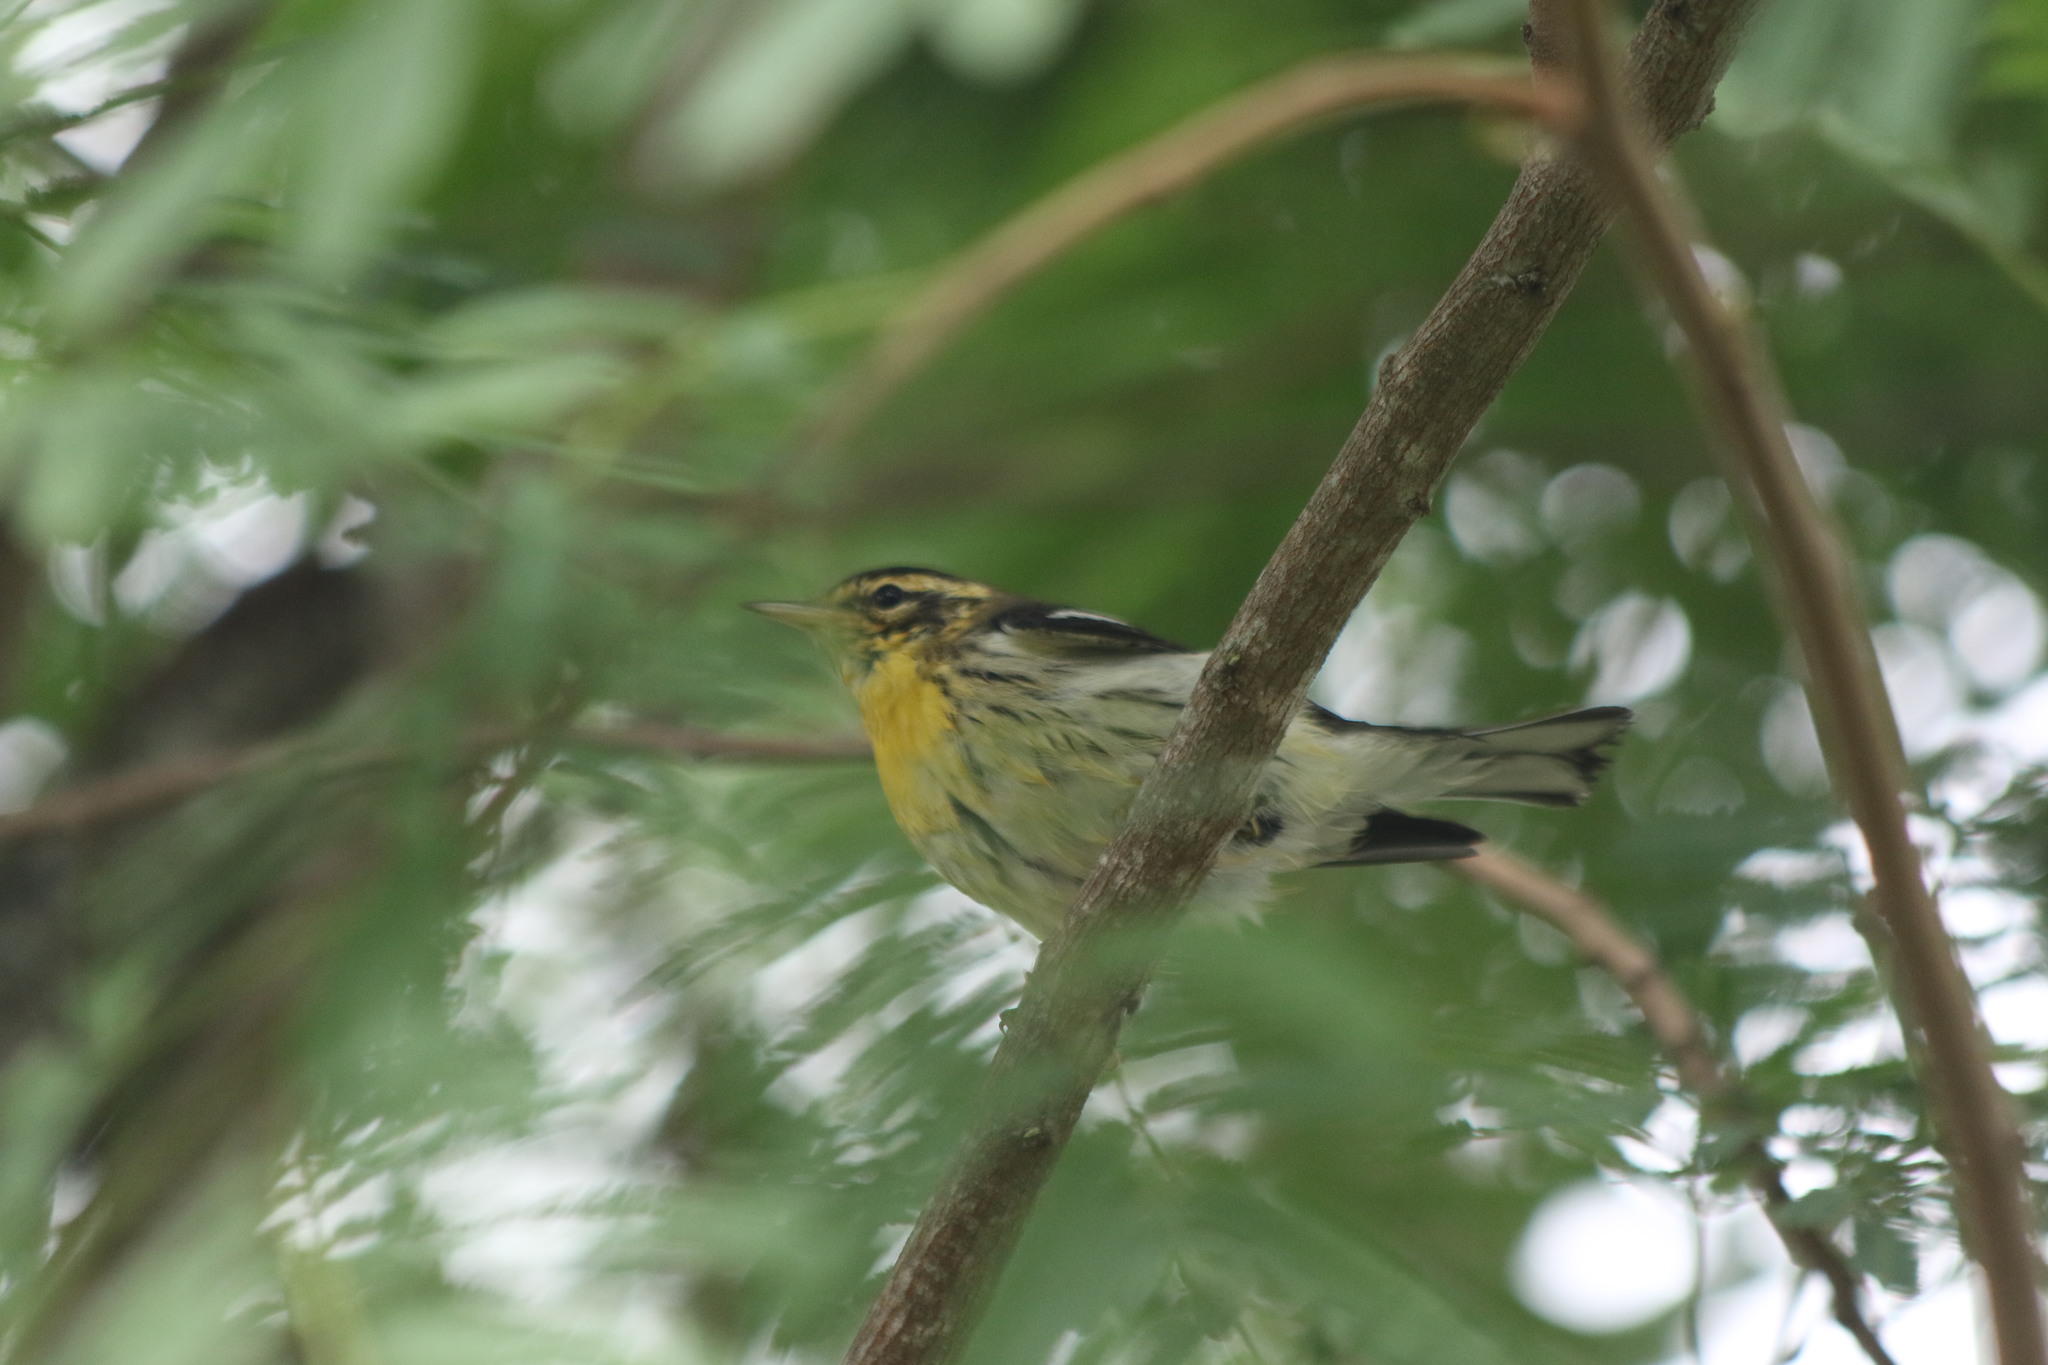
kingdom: Animalia
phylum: Chordata
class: Aves
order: Passeriformes
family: Parulidae
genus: Setophaga
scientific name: Setophaga fusca
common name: Blackburnian warbler
